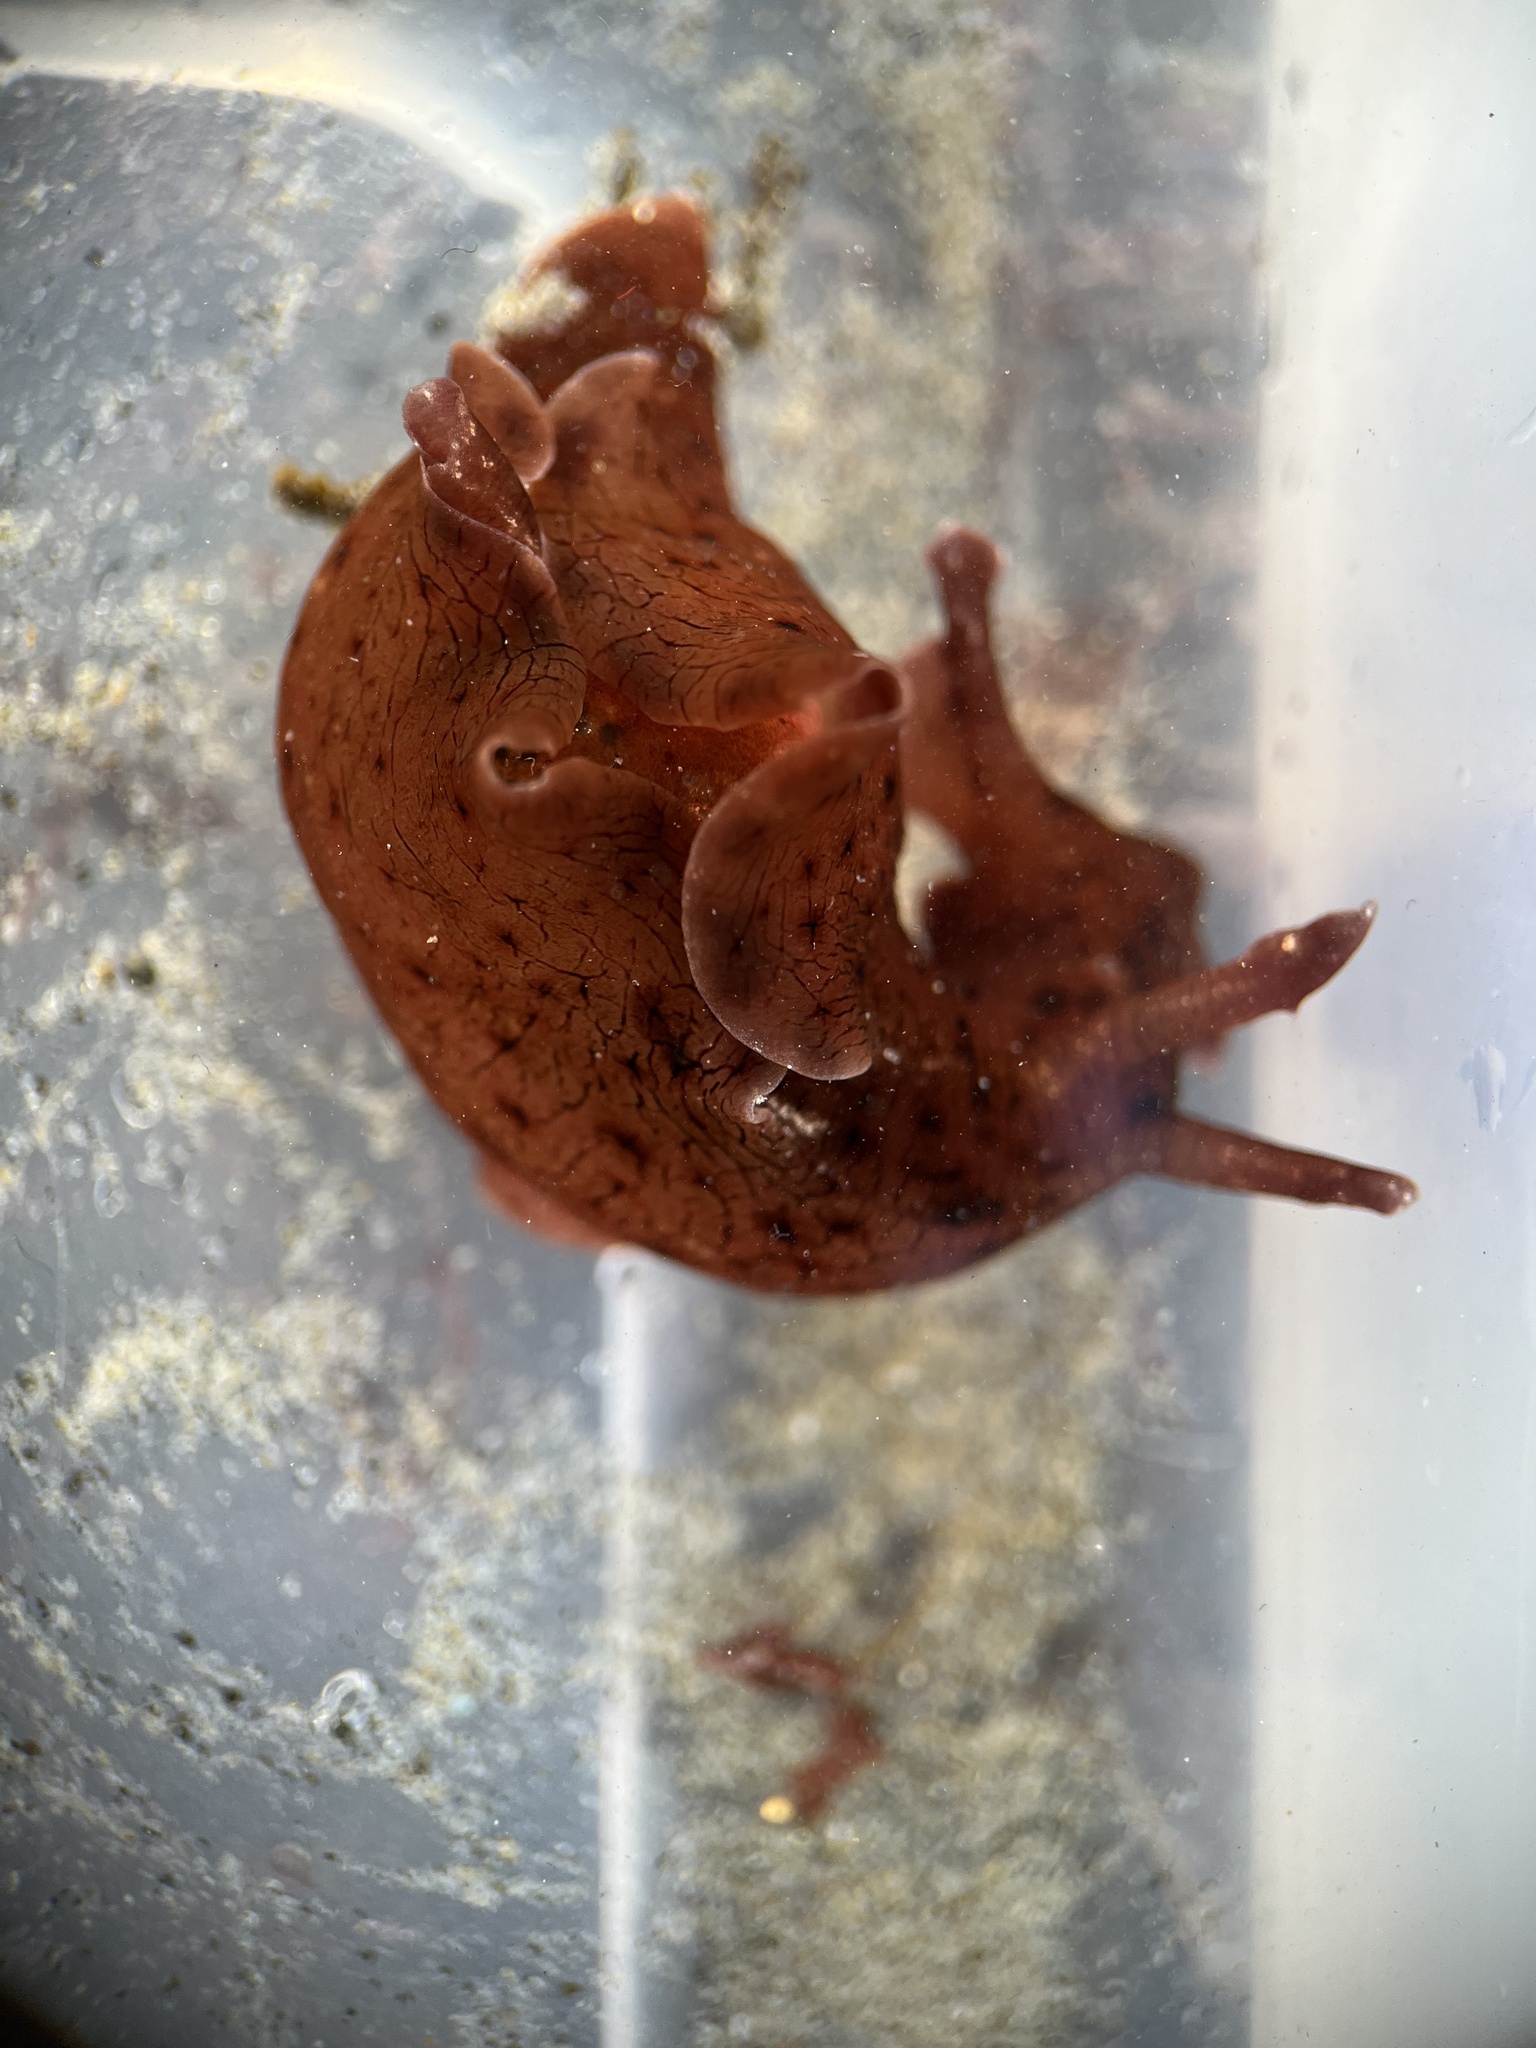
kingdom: Animalia
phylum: Mollusca
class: Gastropoda
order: Aplysiida
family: Aplysiidae
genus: Aplysia
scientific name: Aplysia californica
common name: California seahare
